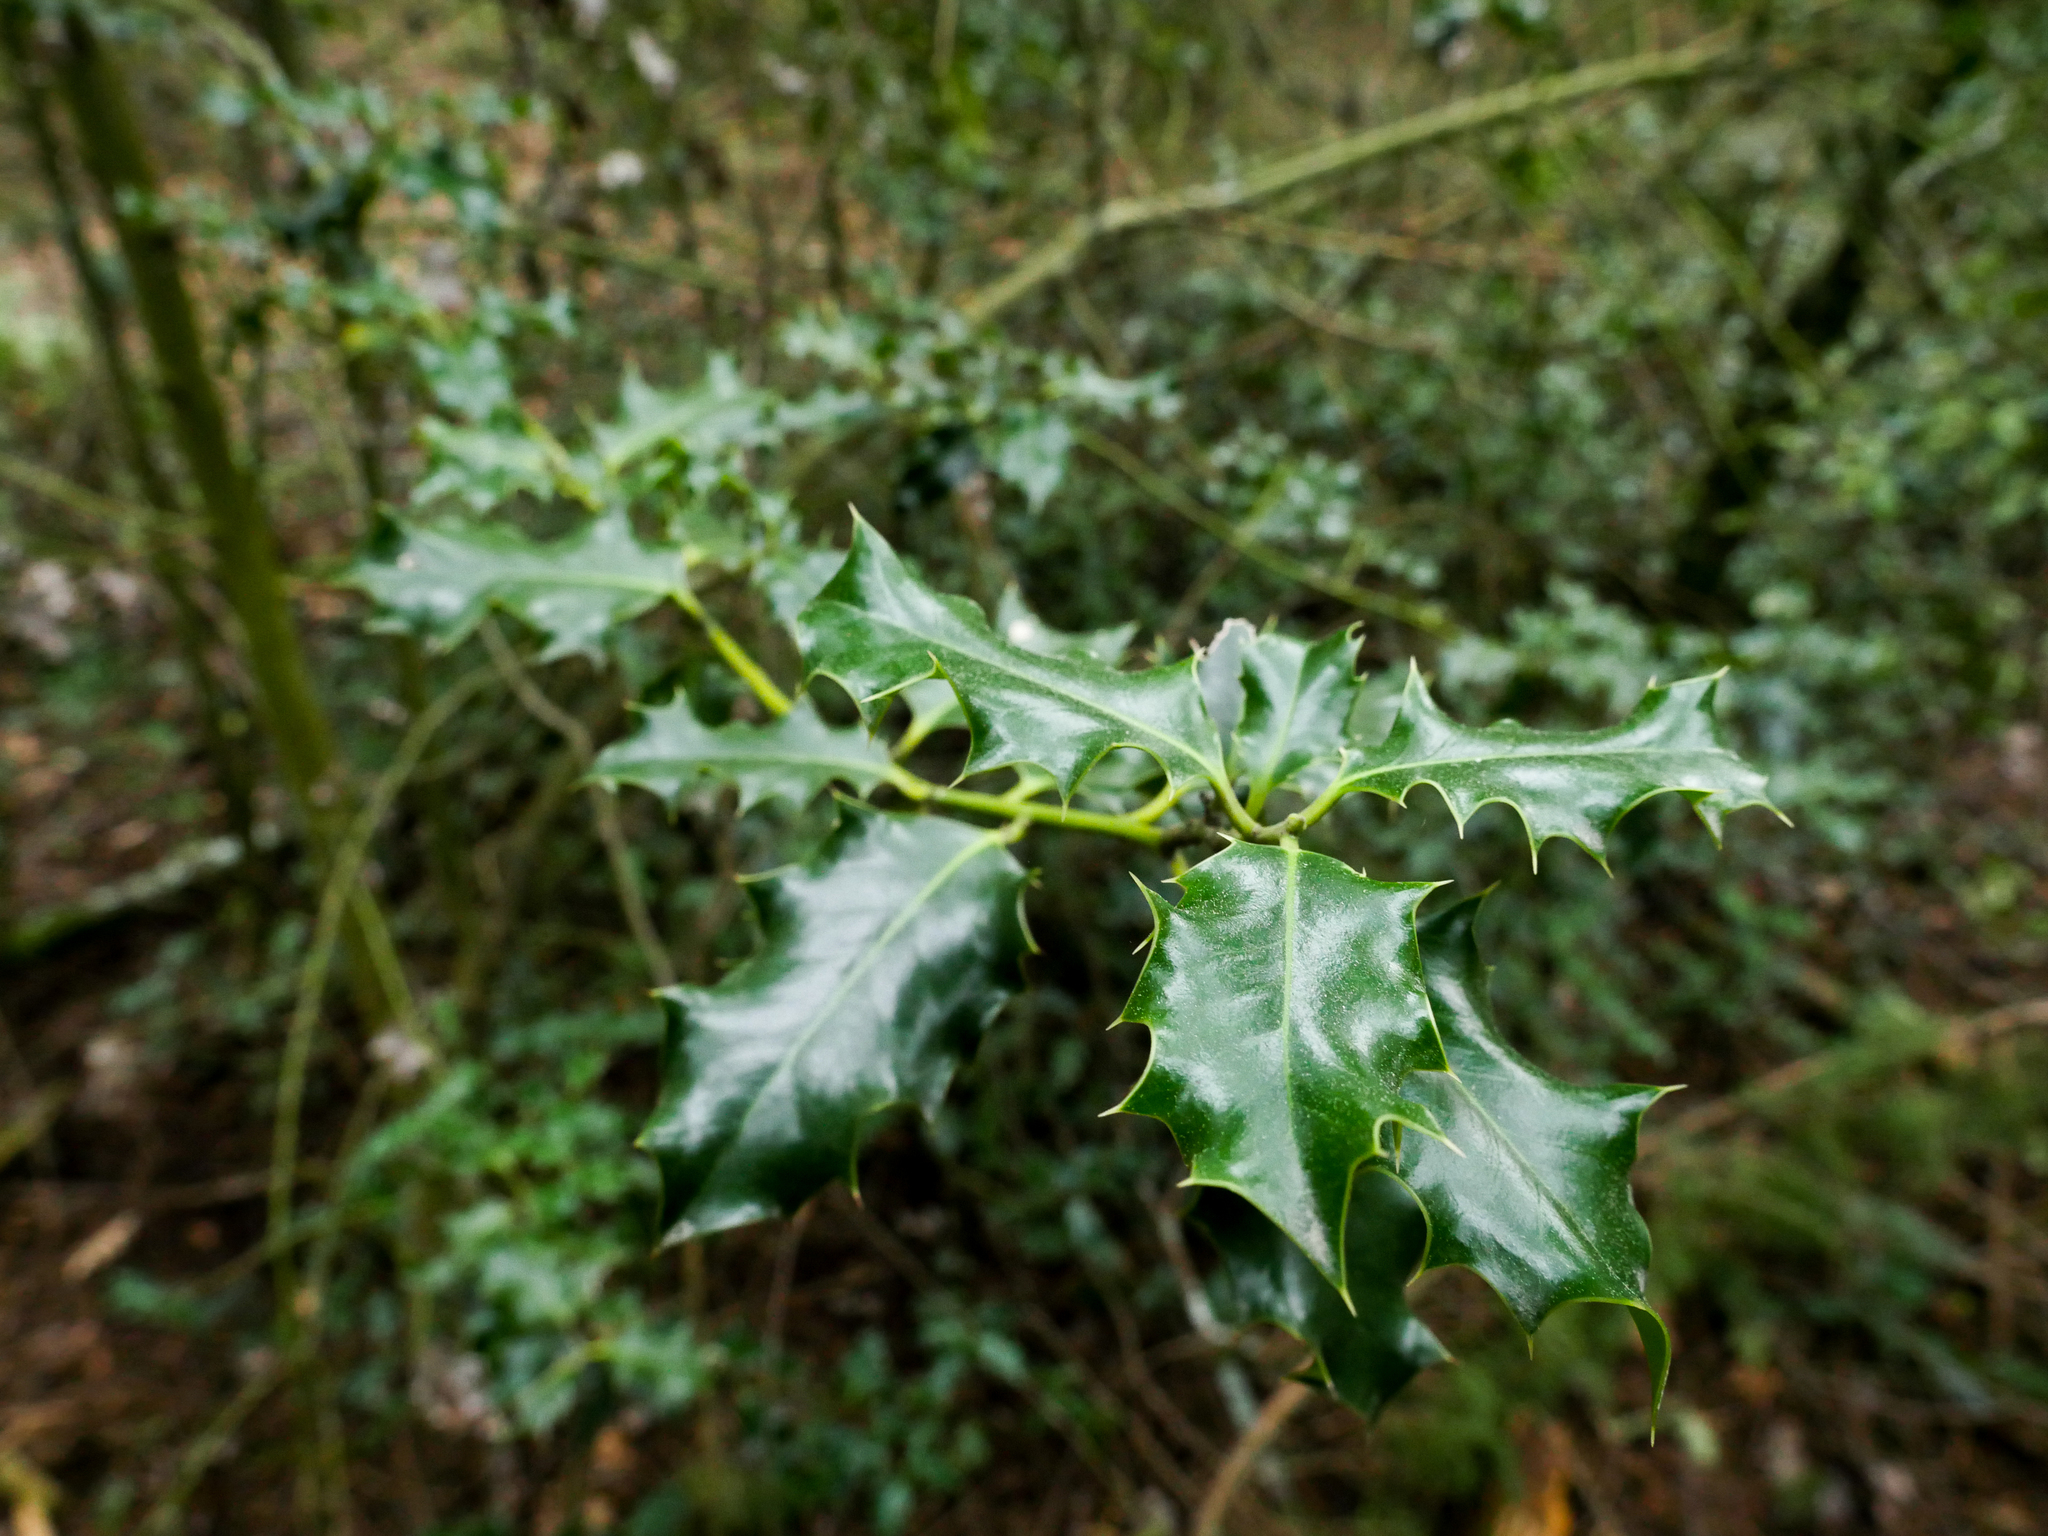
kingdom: Plantae
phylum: Tracheophyta
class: Magnoliopsida
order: Aquifoliales
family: Aquifoliaceae
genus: Ilex
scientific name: Ilex aquifolium
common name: English holly
